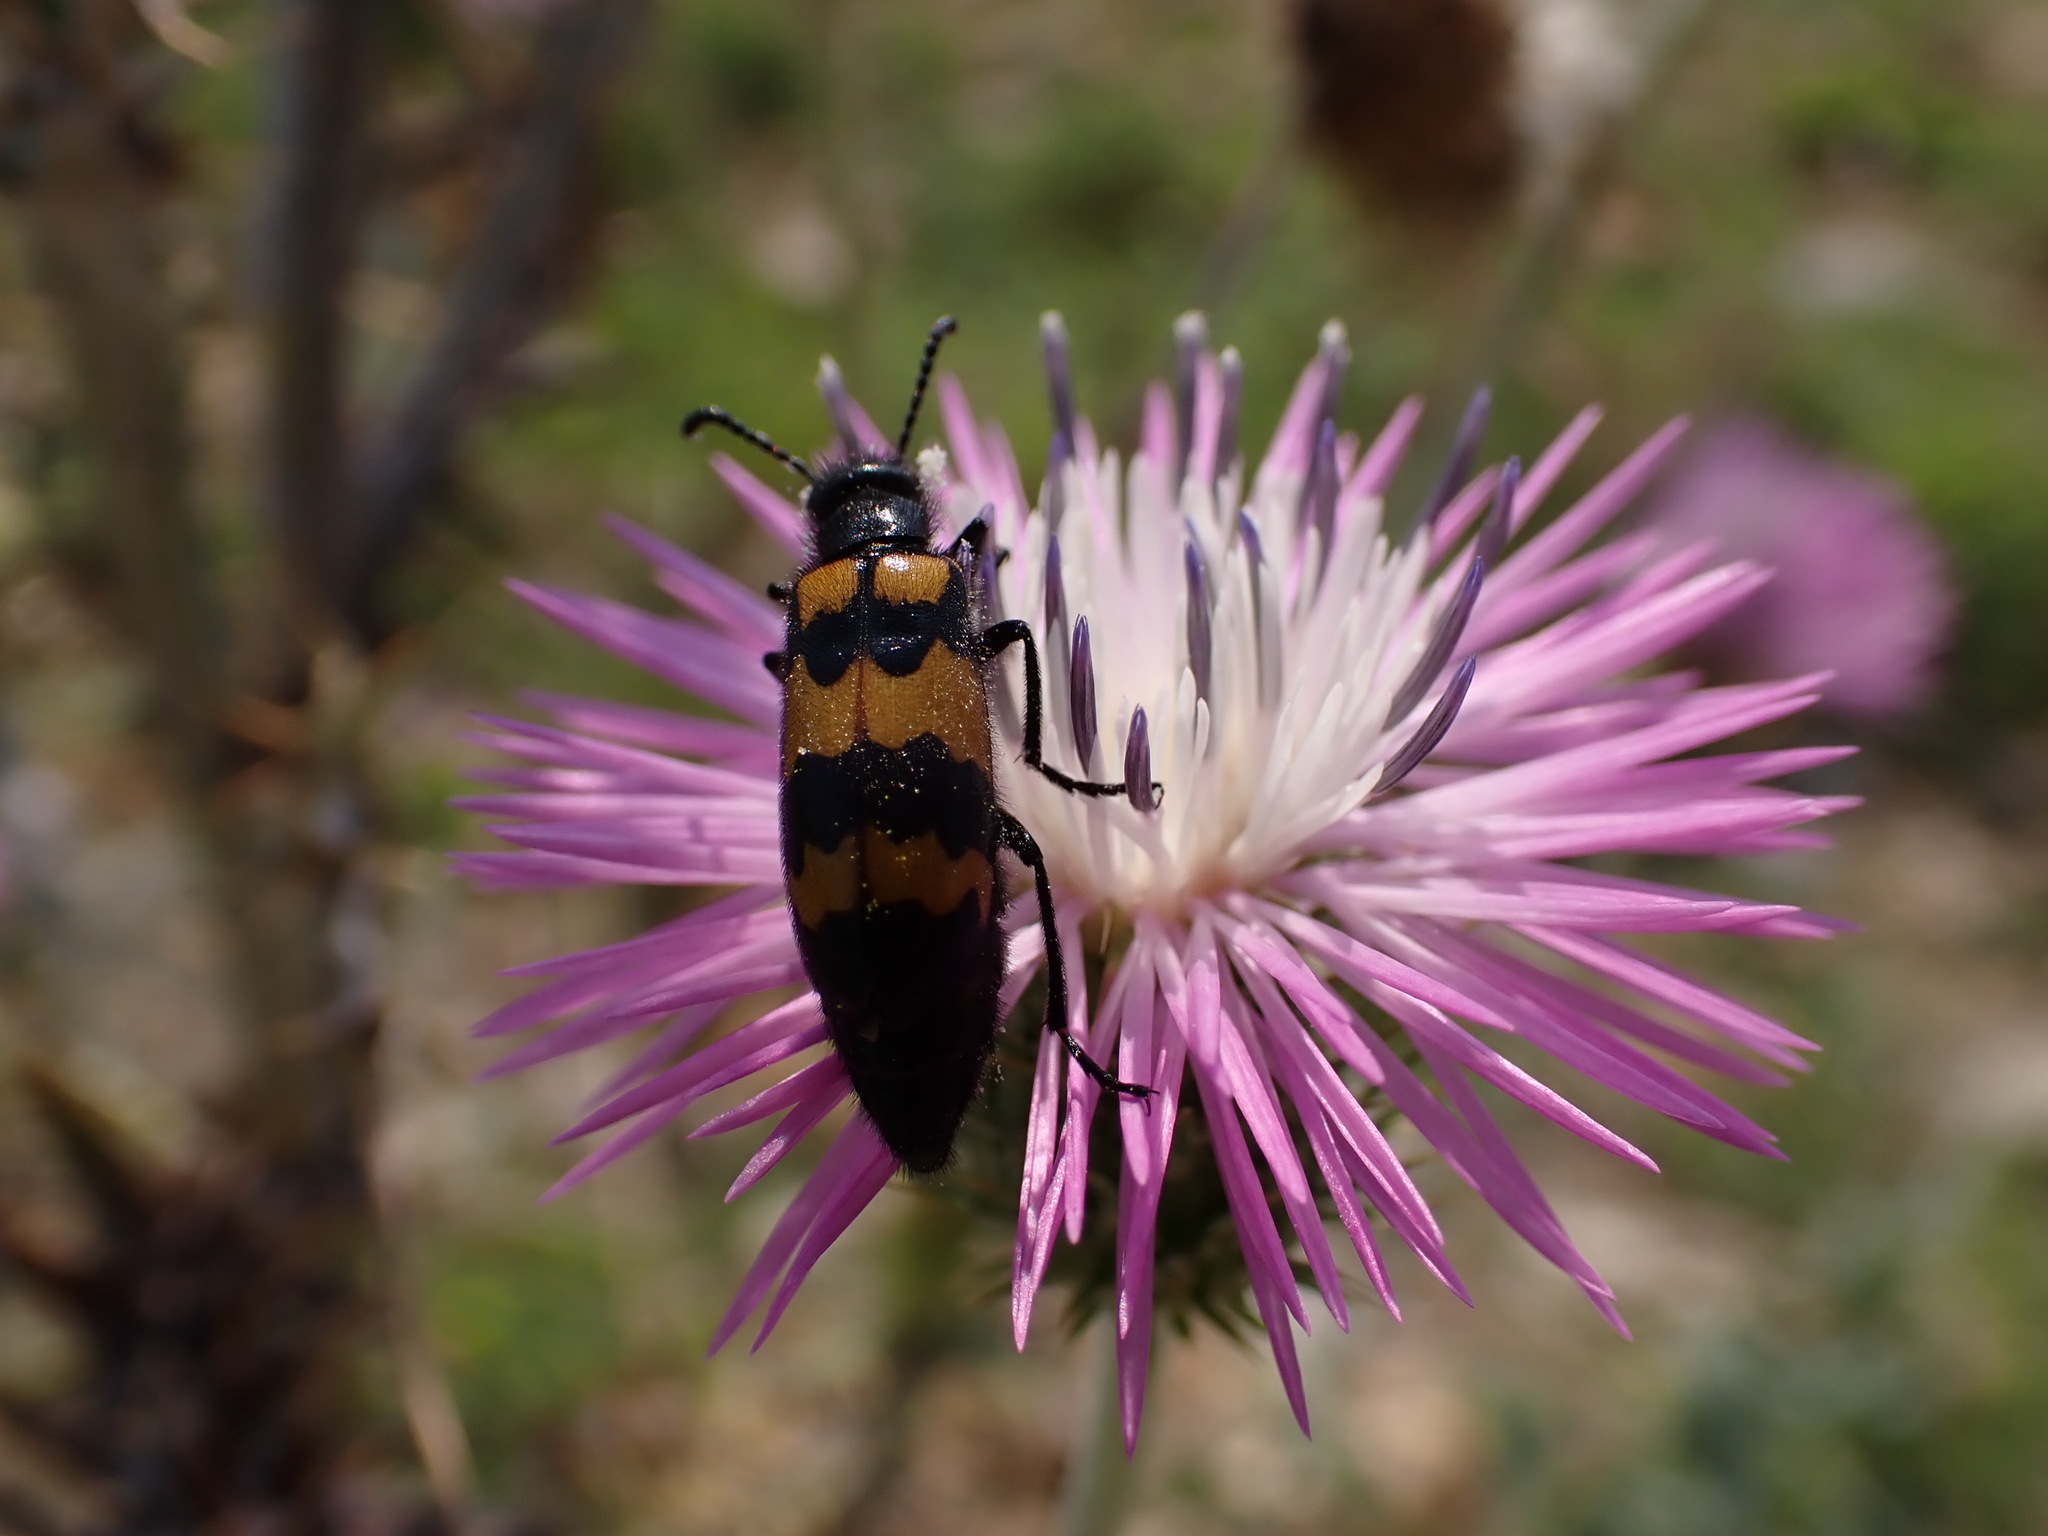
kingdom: Animalia
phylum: Arthropoda
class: Insecta
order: Coleoptera
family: Meloidae
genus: Mylabris
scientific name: Mylabris variabilis
